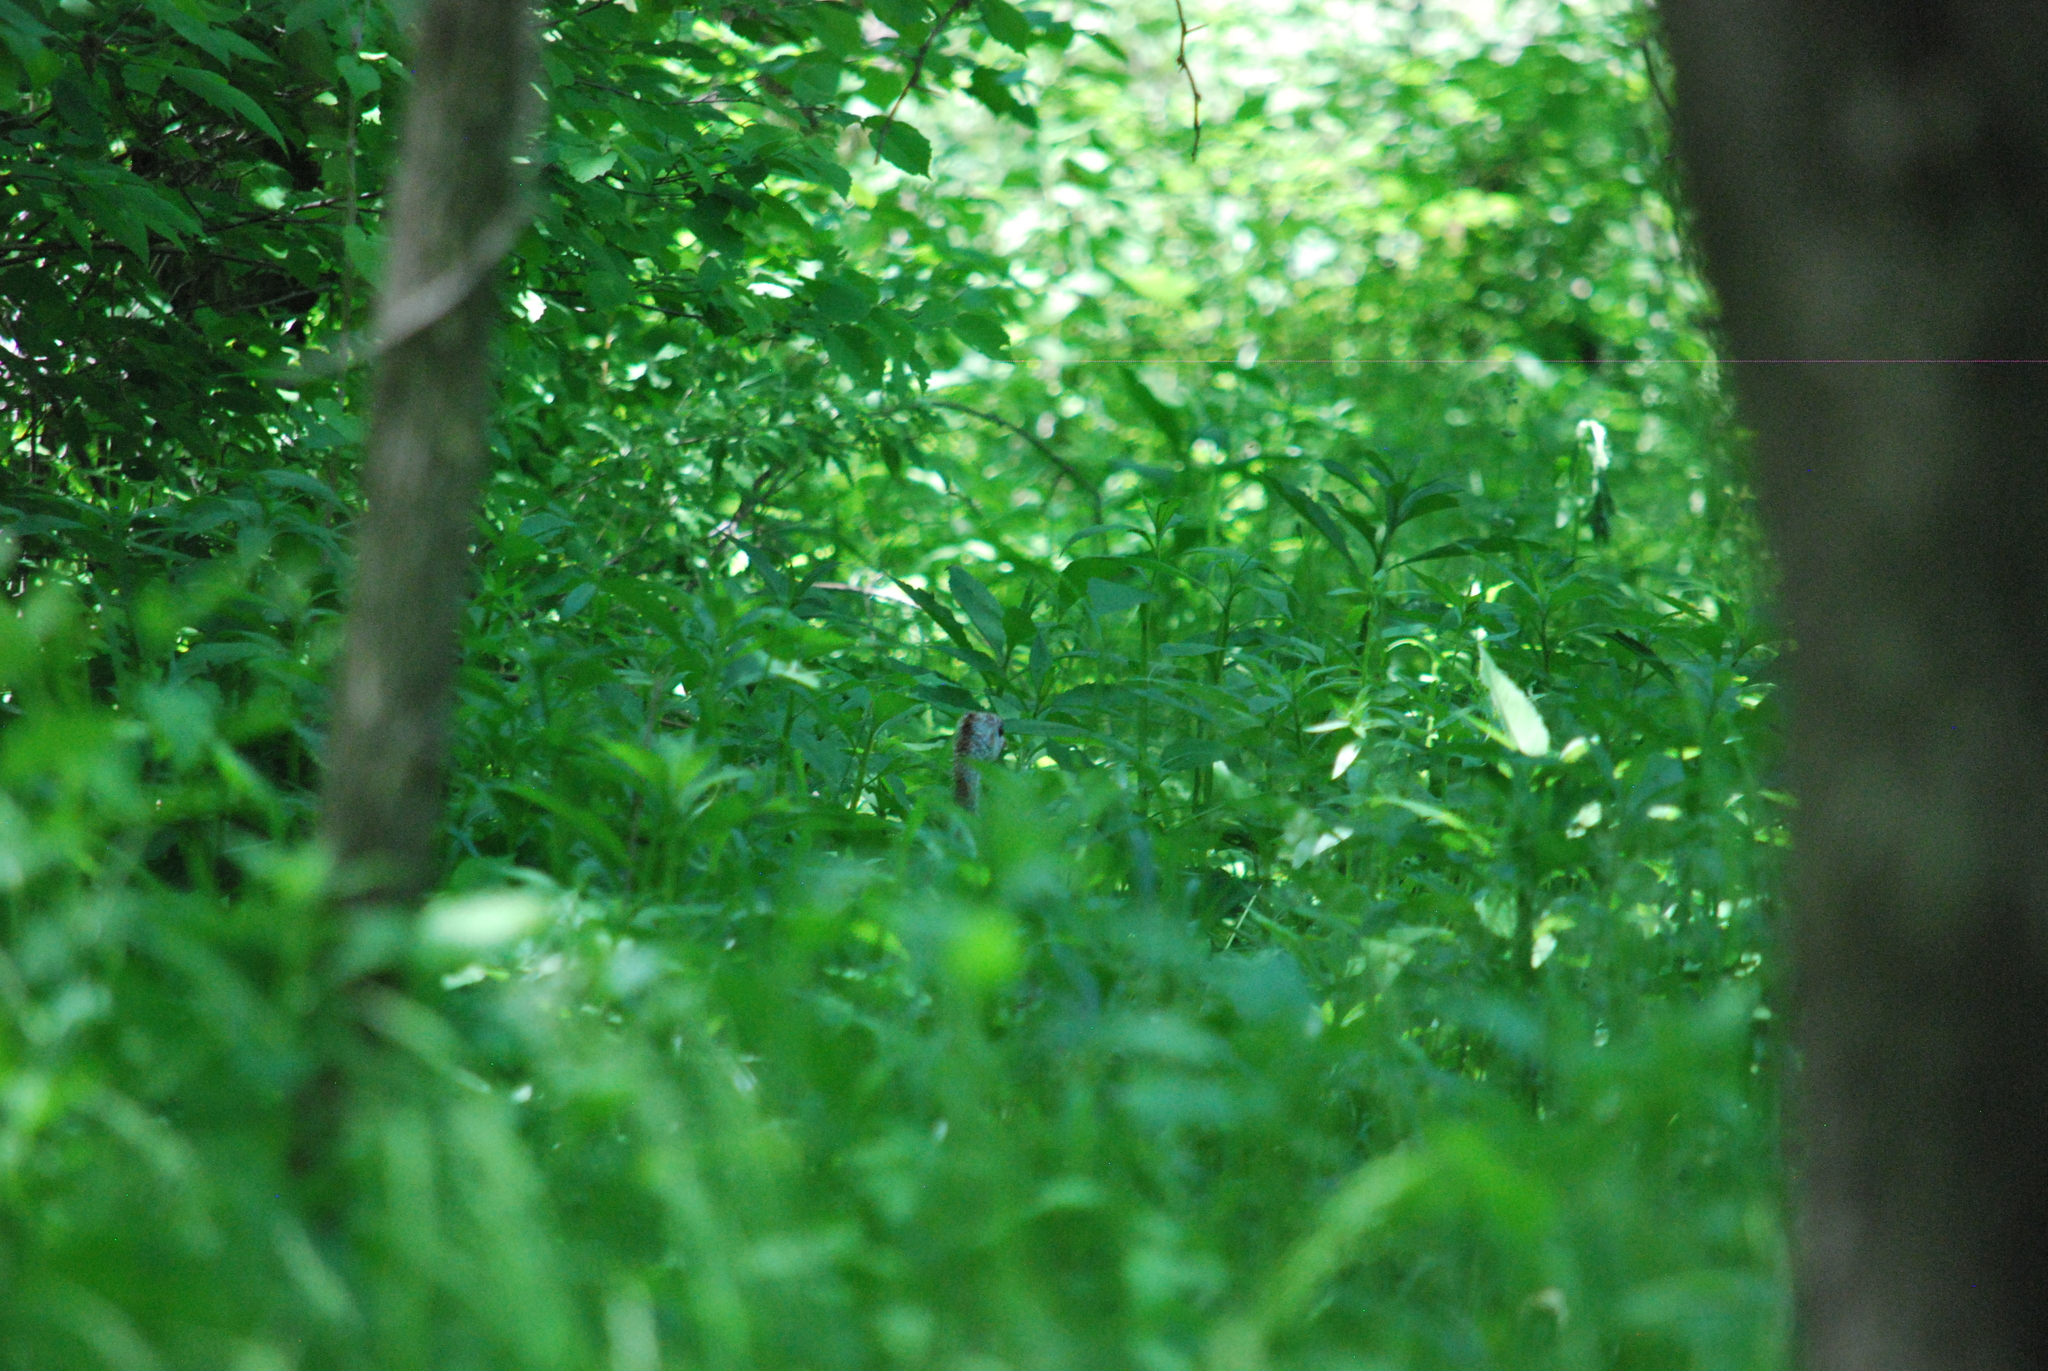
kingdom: Animalia
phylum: Chordata
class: Aves
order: Galliformes
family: Phasianidae
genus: Meleagris
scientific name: Meleagris gallopavo
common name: Wild turkey
